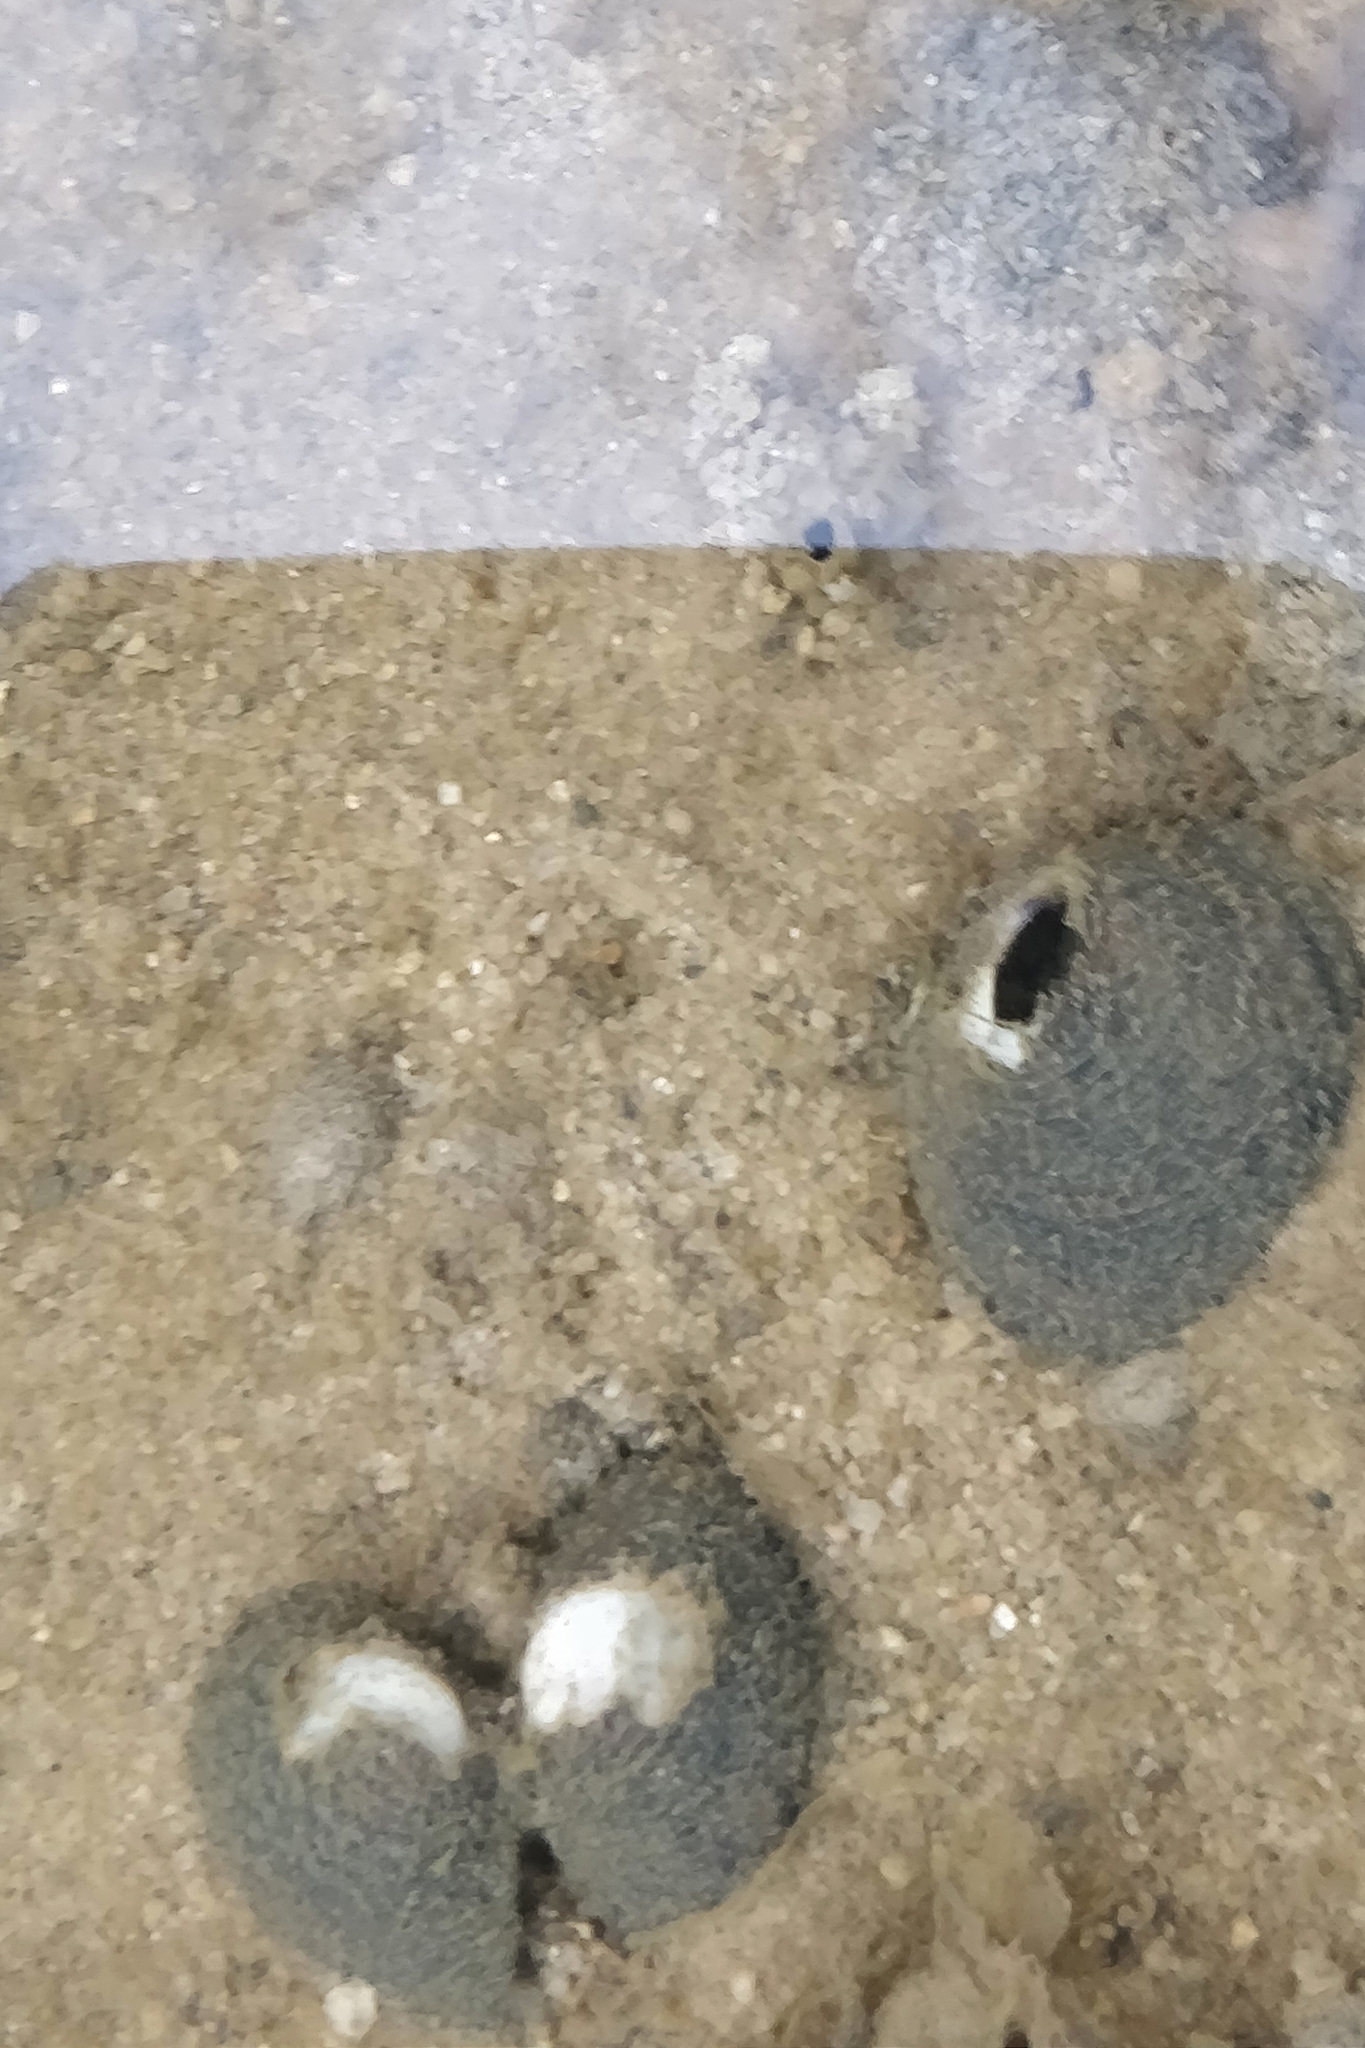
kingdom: Animalia
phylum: Mollusca
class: Bivalvia
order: Venerida
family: Cyrenidae
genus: Corbicula
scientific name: Corbicula fluminea
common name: Asian clam
